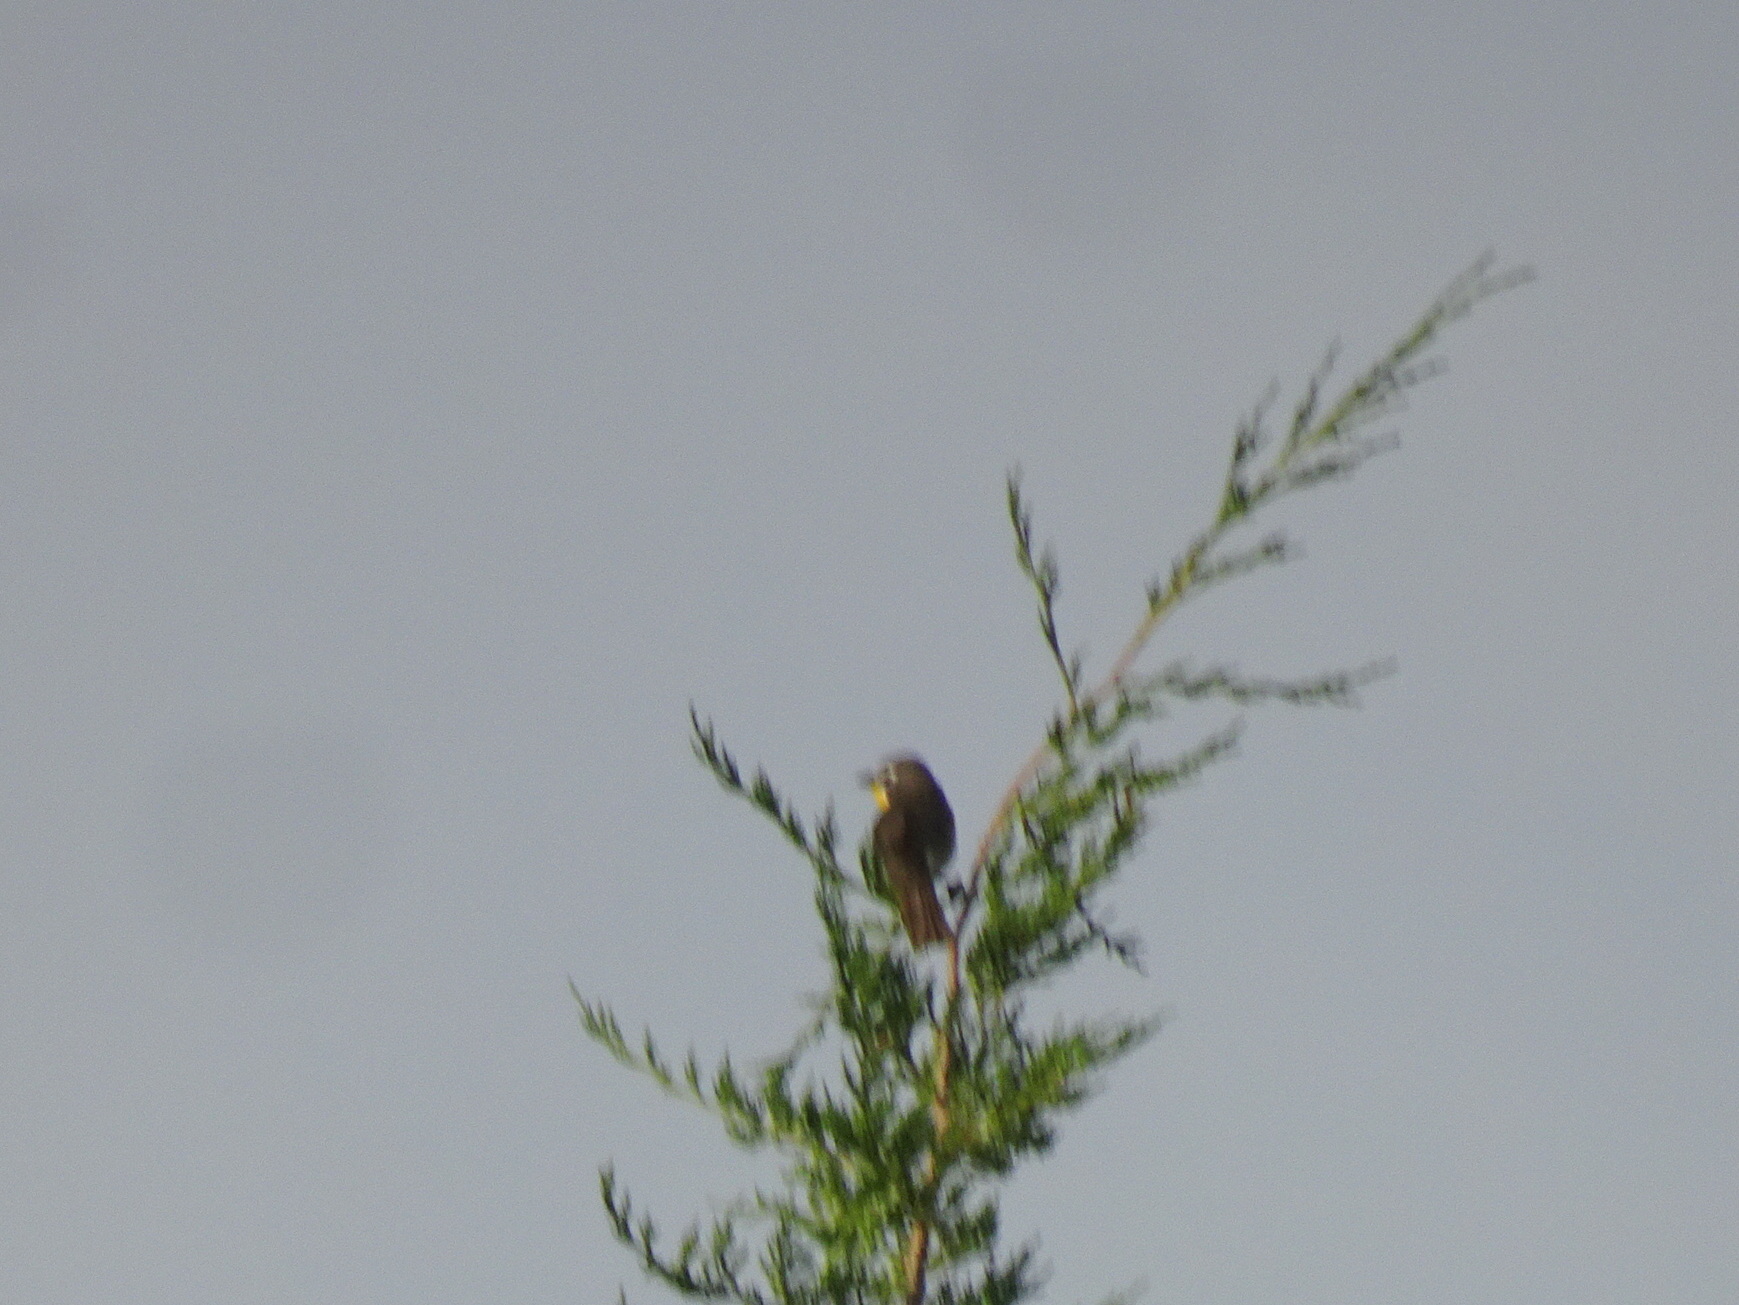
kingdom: Animalia
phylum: Chordata
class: Aves
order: Passeriformes
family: Parulidae
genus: Icteria
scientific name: Icteria virens
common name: Yellow-breasted chat
